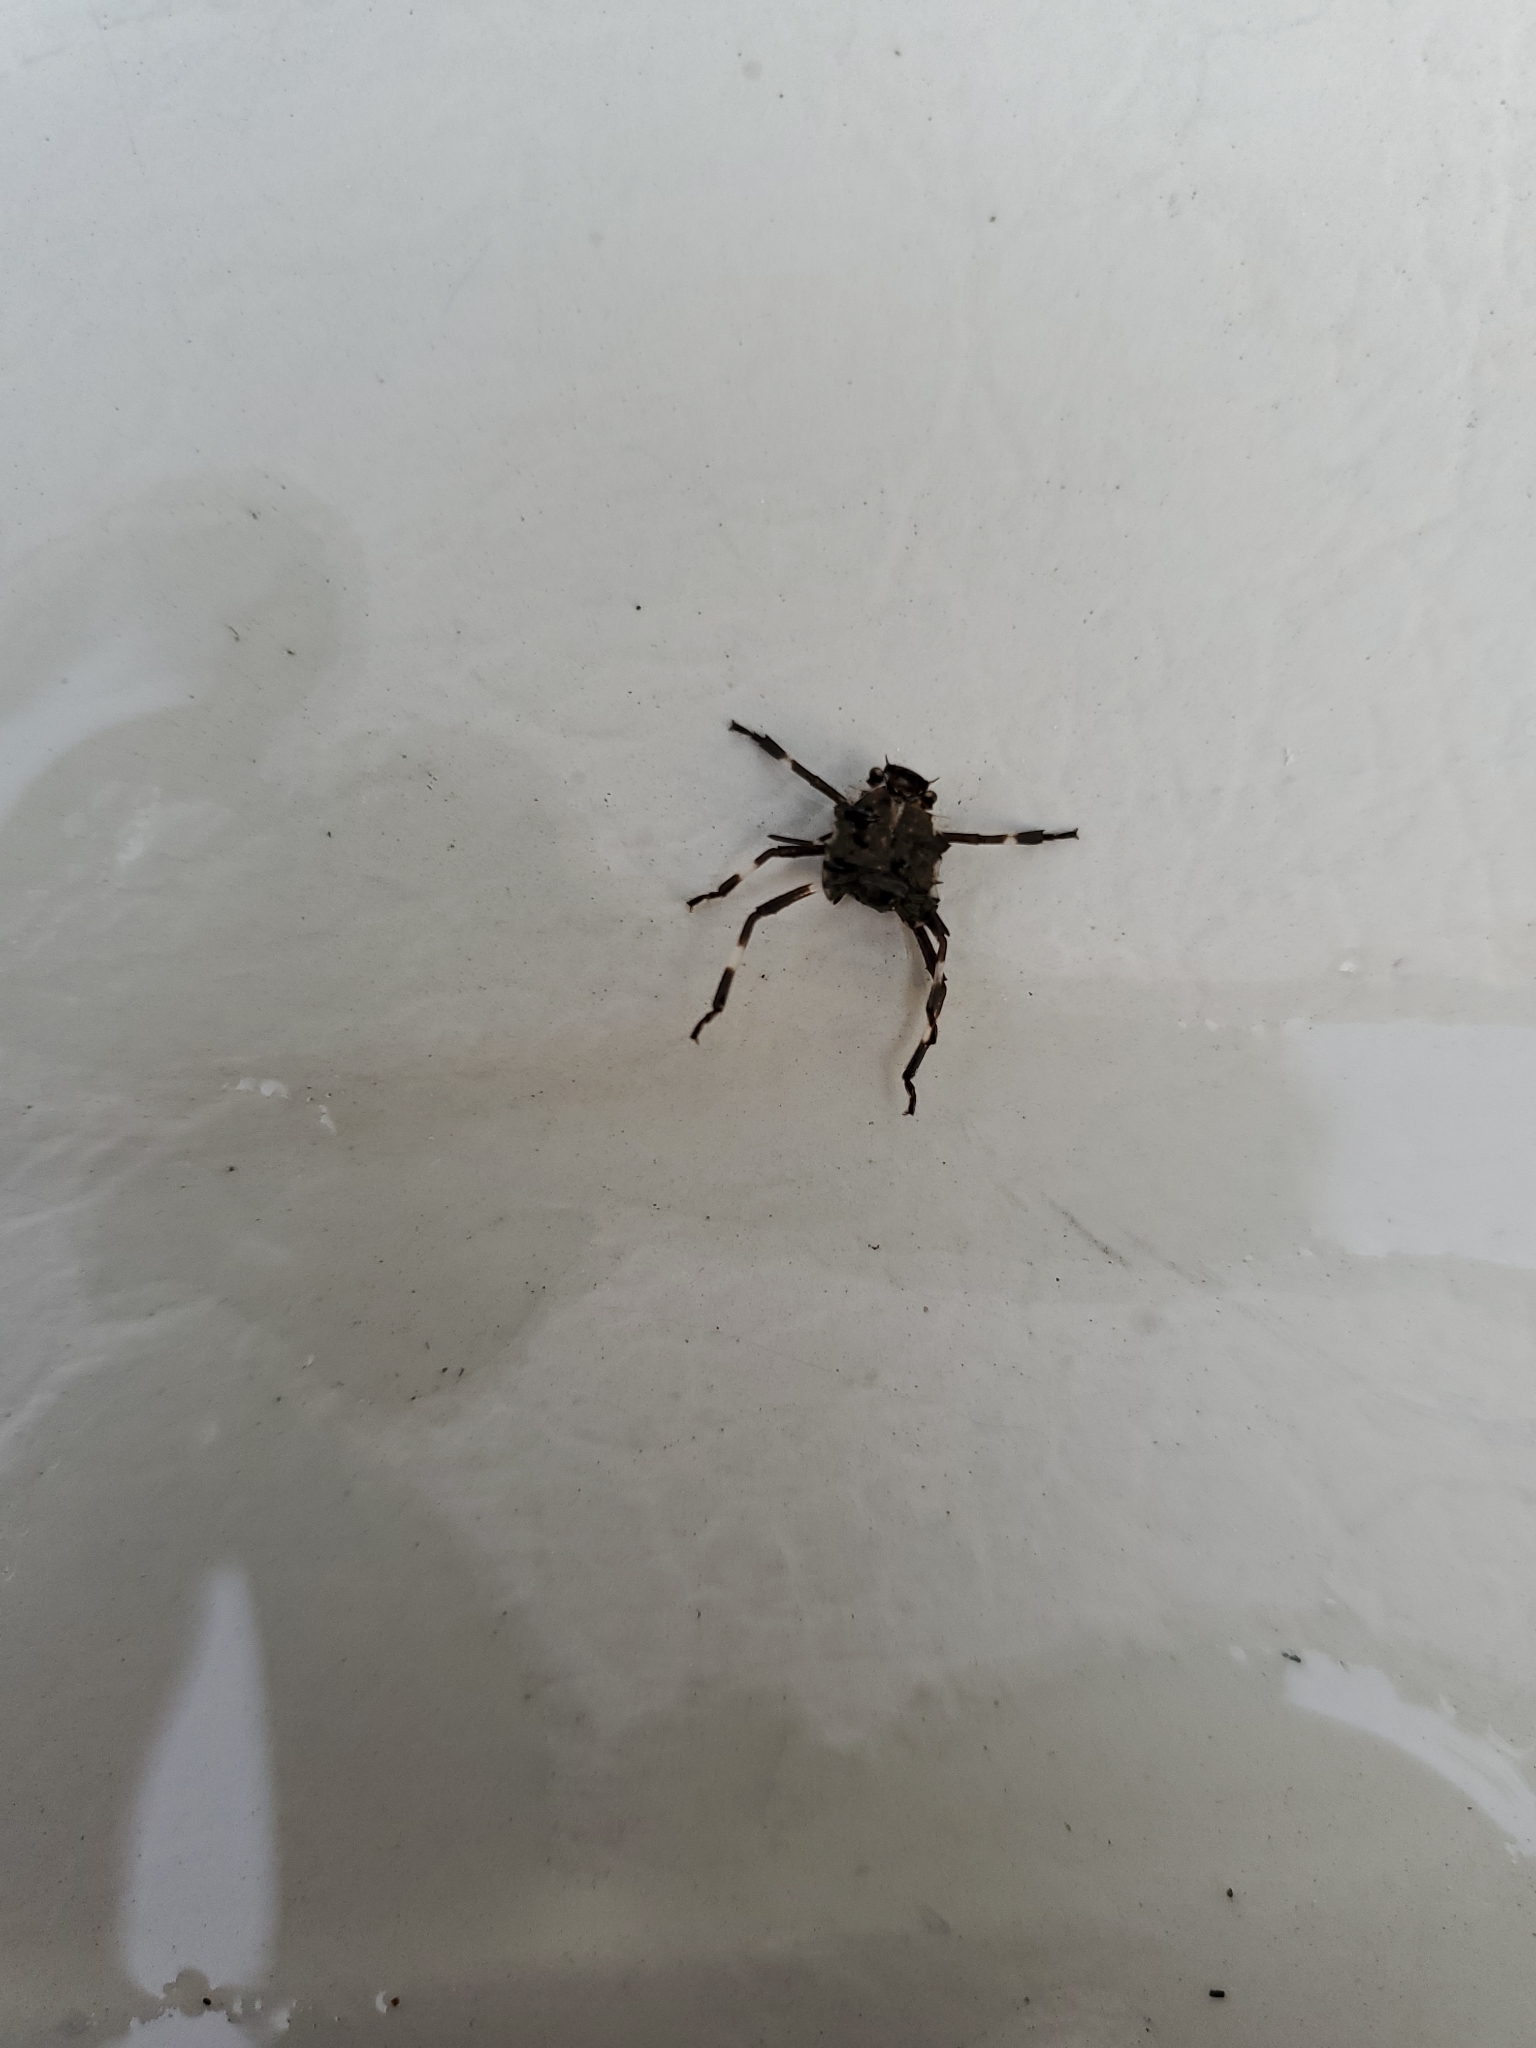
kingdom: Animalia
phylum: Arthropoda
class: Insecta
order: Hemiptera
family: Pentatomidae
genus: Halyomorpha
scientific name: Halyomorpha halys
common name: Brown marmorated stink bug
